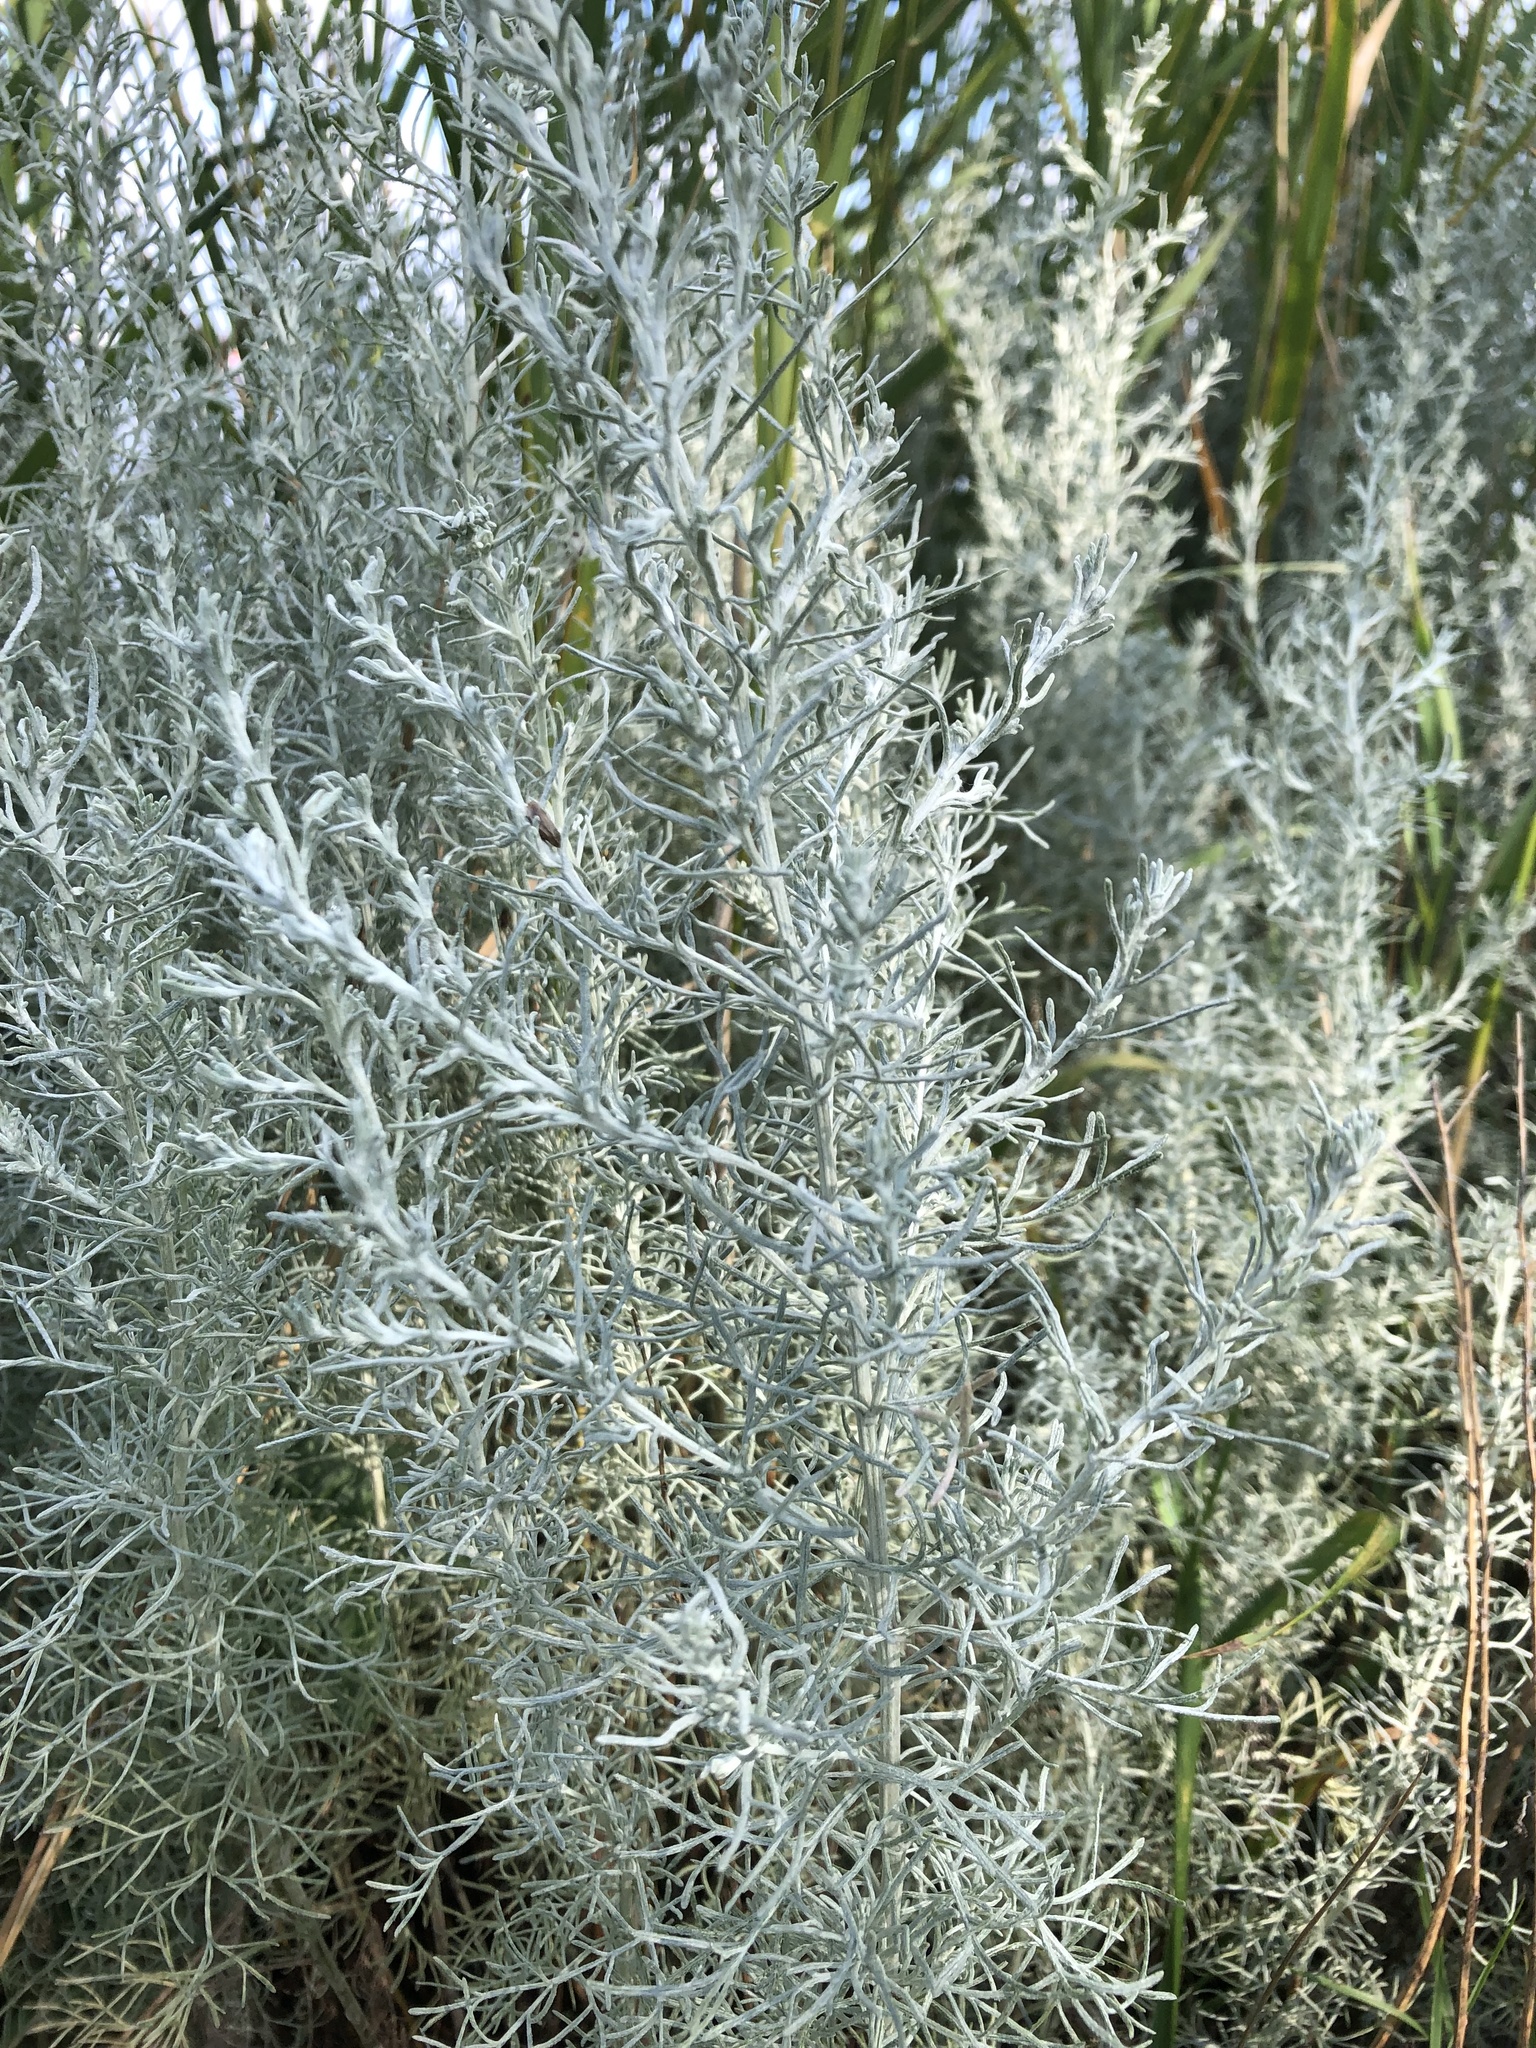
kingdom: Plantae
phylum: Tracheophyta
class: Magnoliopsida
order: Asterales
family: Asteraceae
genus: Artemisia
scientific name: Artemisia maritima
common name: Wormseed
